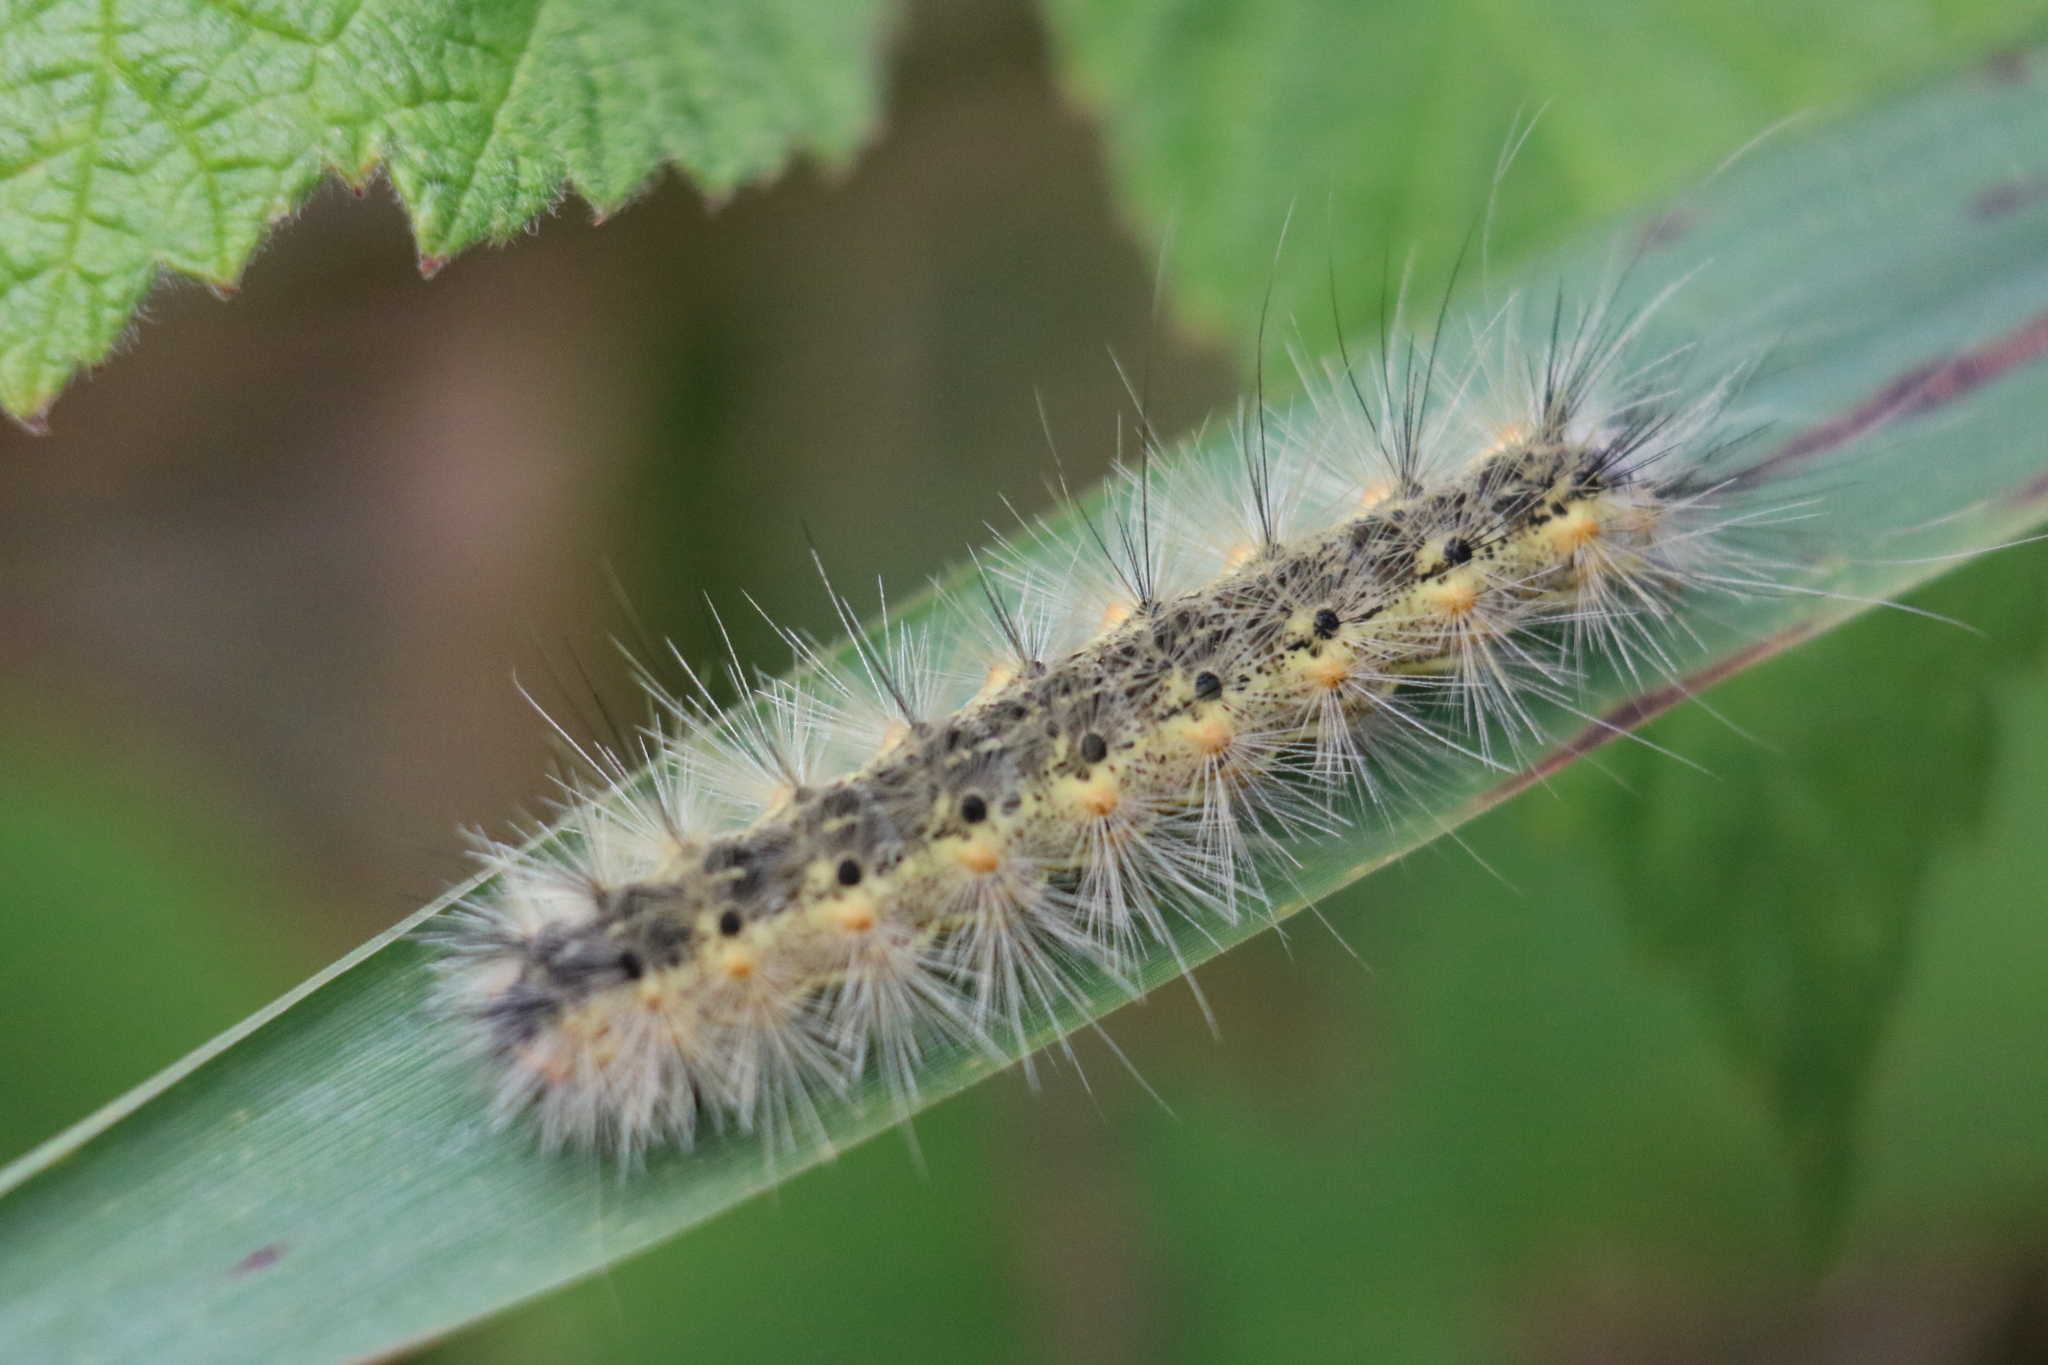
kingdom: Animalia
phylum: Arthropoda
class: Insecta
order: Lepidoptera
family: Erebidae
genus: Hyphantria
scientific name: Hyphantria cunea
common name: American white moth
